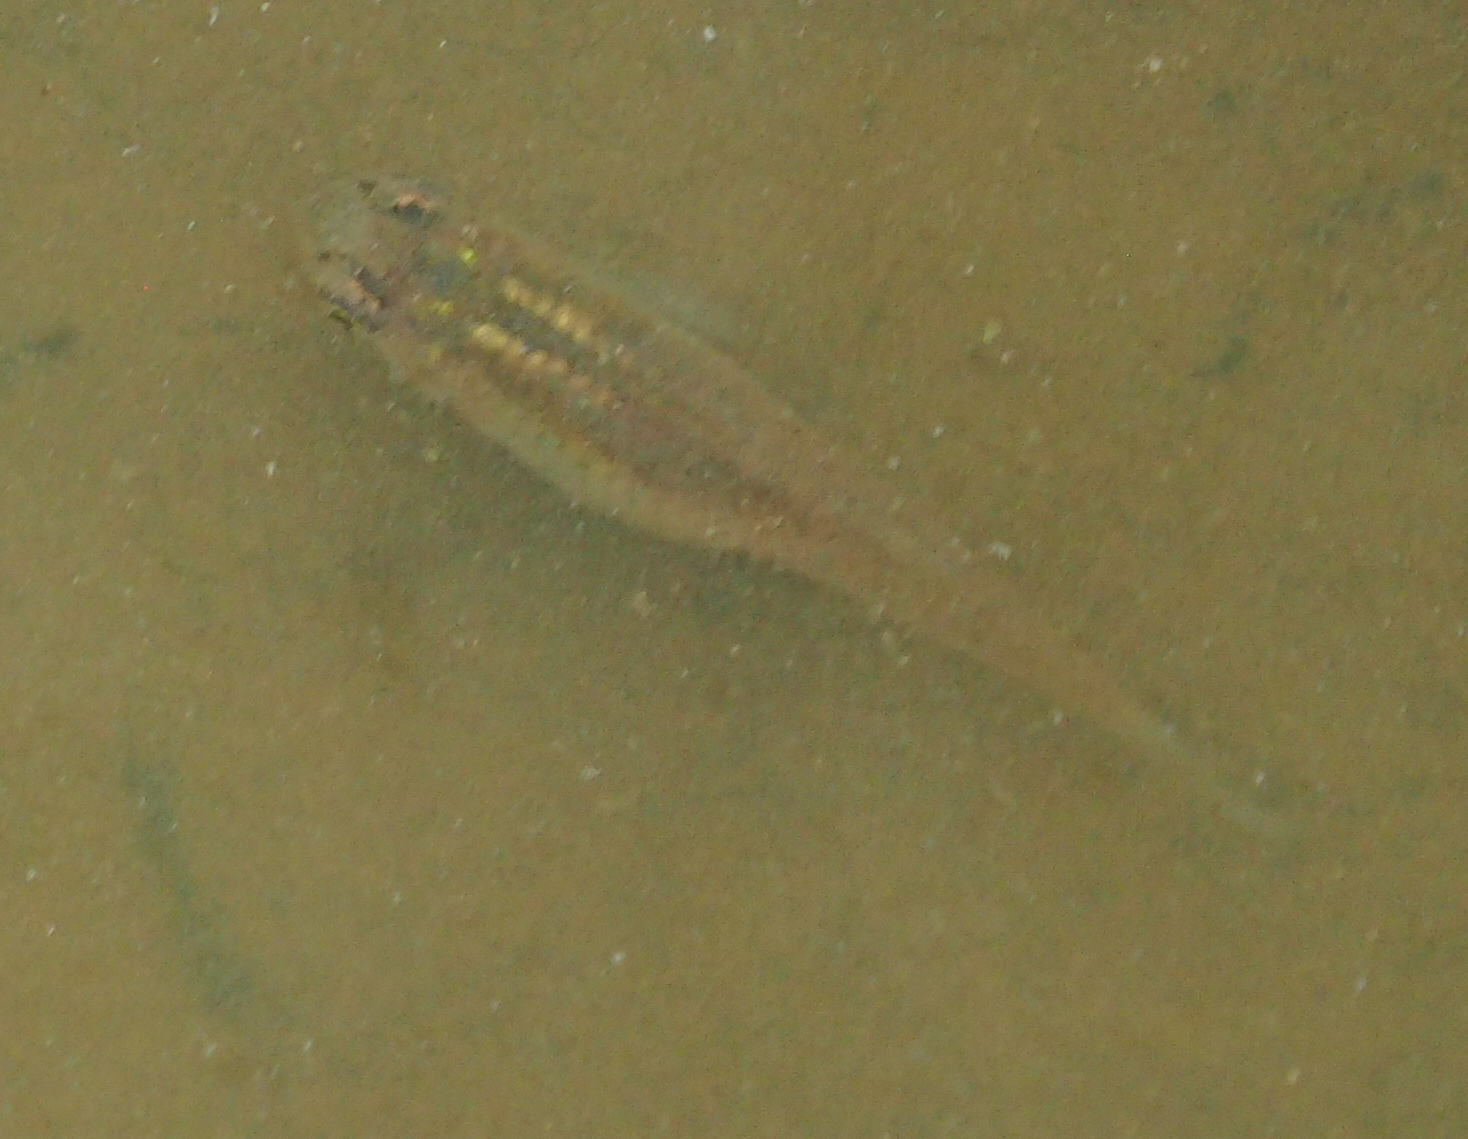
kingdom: Animalia
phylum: Chordata
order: Cyprinodontiformes
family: Poeciliidae
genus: Gambusia
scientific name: Gambusia holbrooki
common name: Eastern mosquitofish
